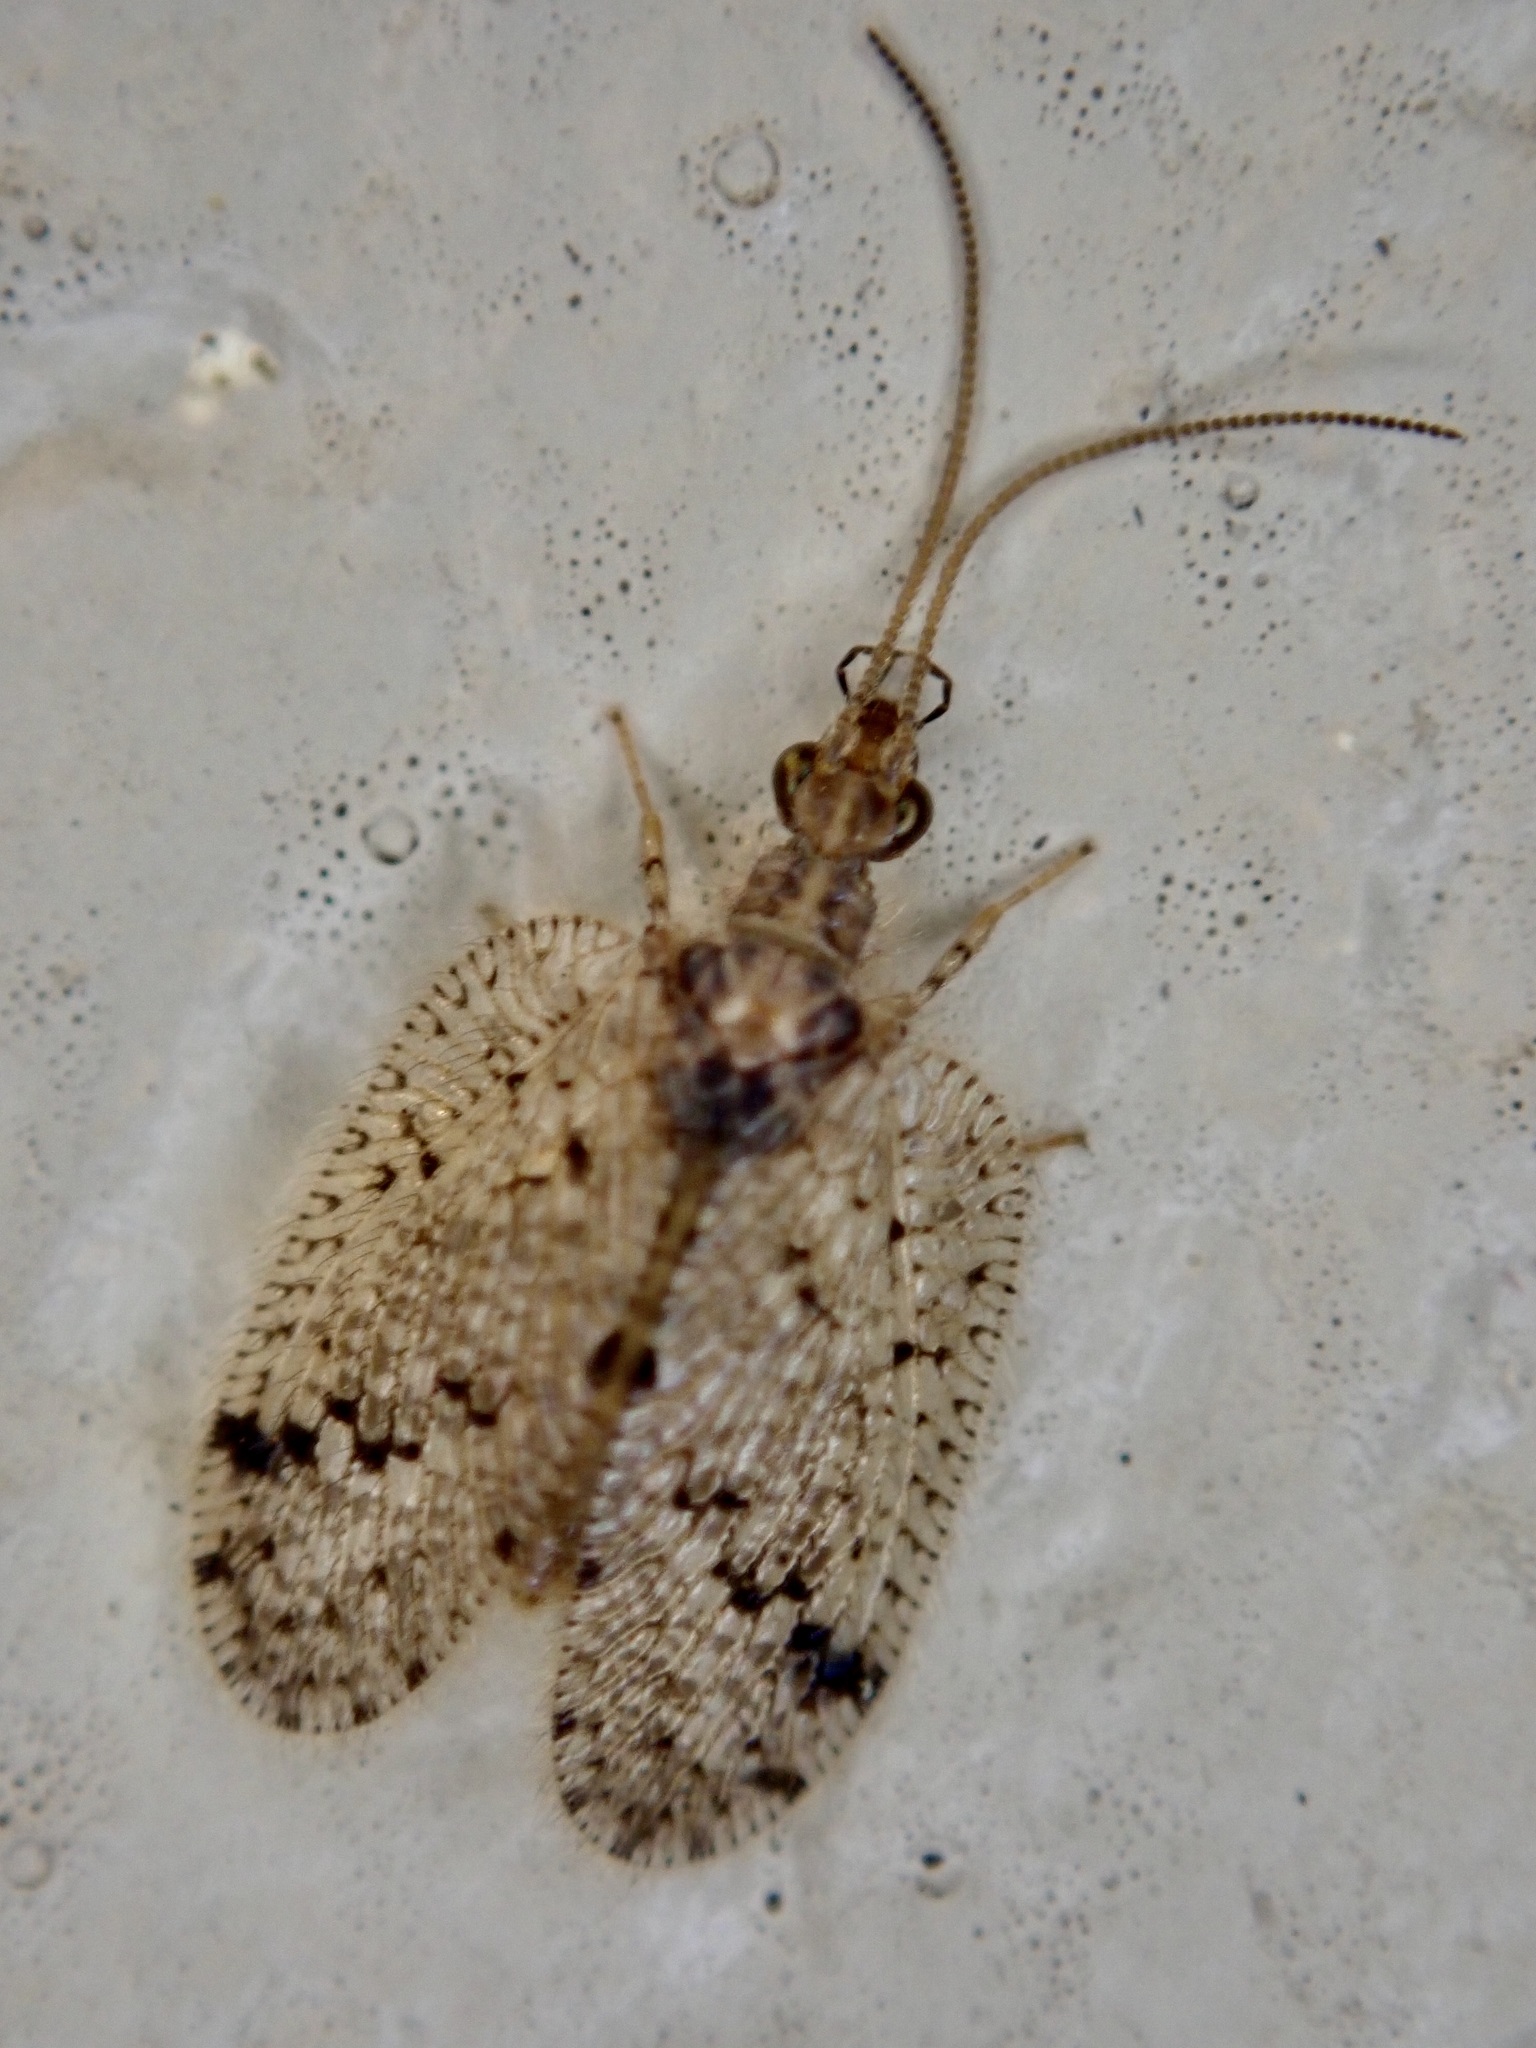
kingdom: Animalia
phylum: Arthropoda
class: Insecta
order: Neuroptera
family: Hemerobiidae
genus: Psectra
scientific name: Psectra nakaharai
